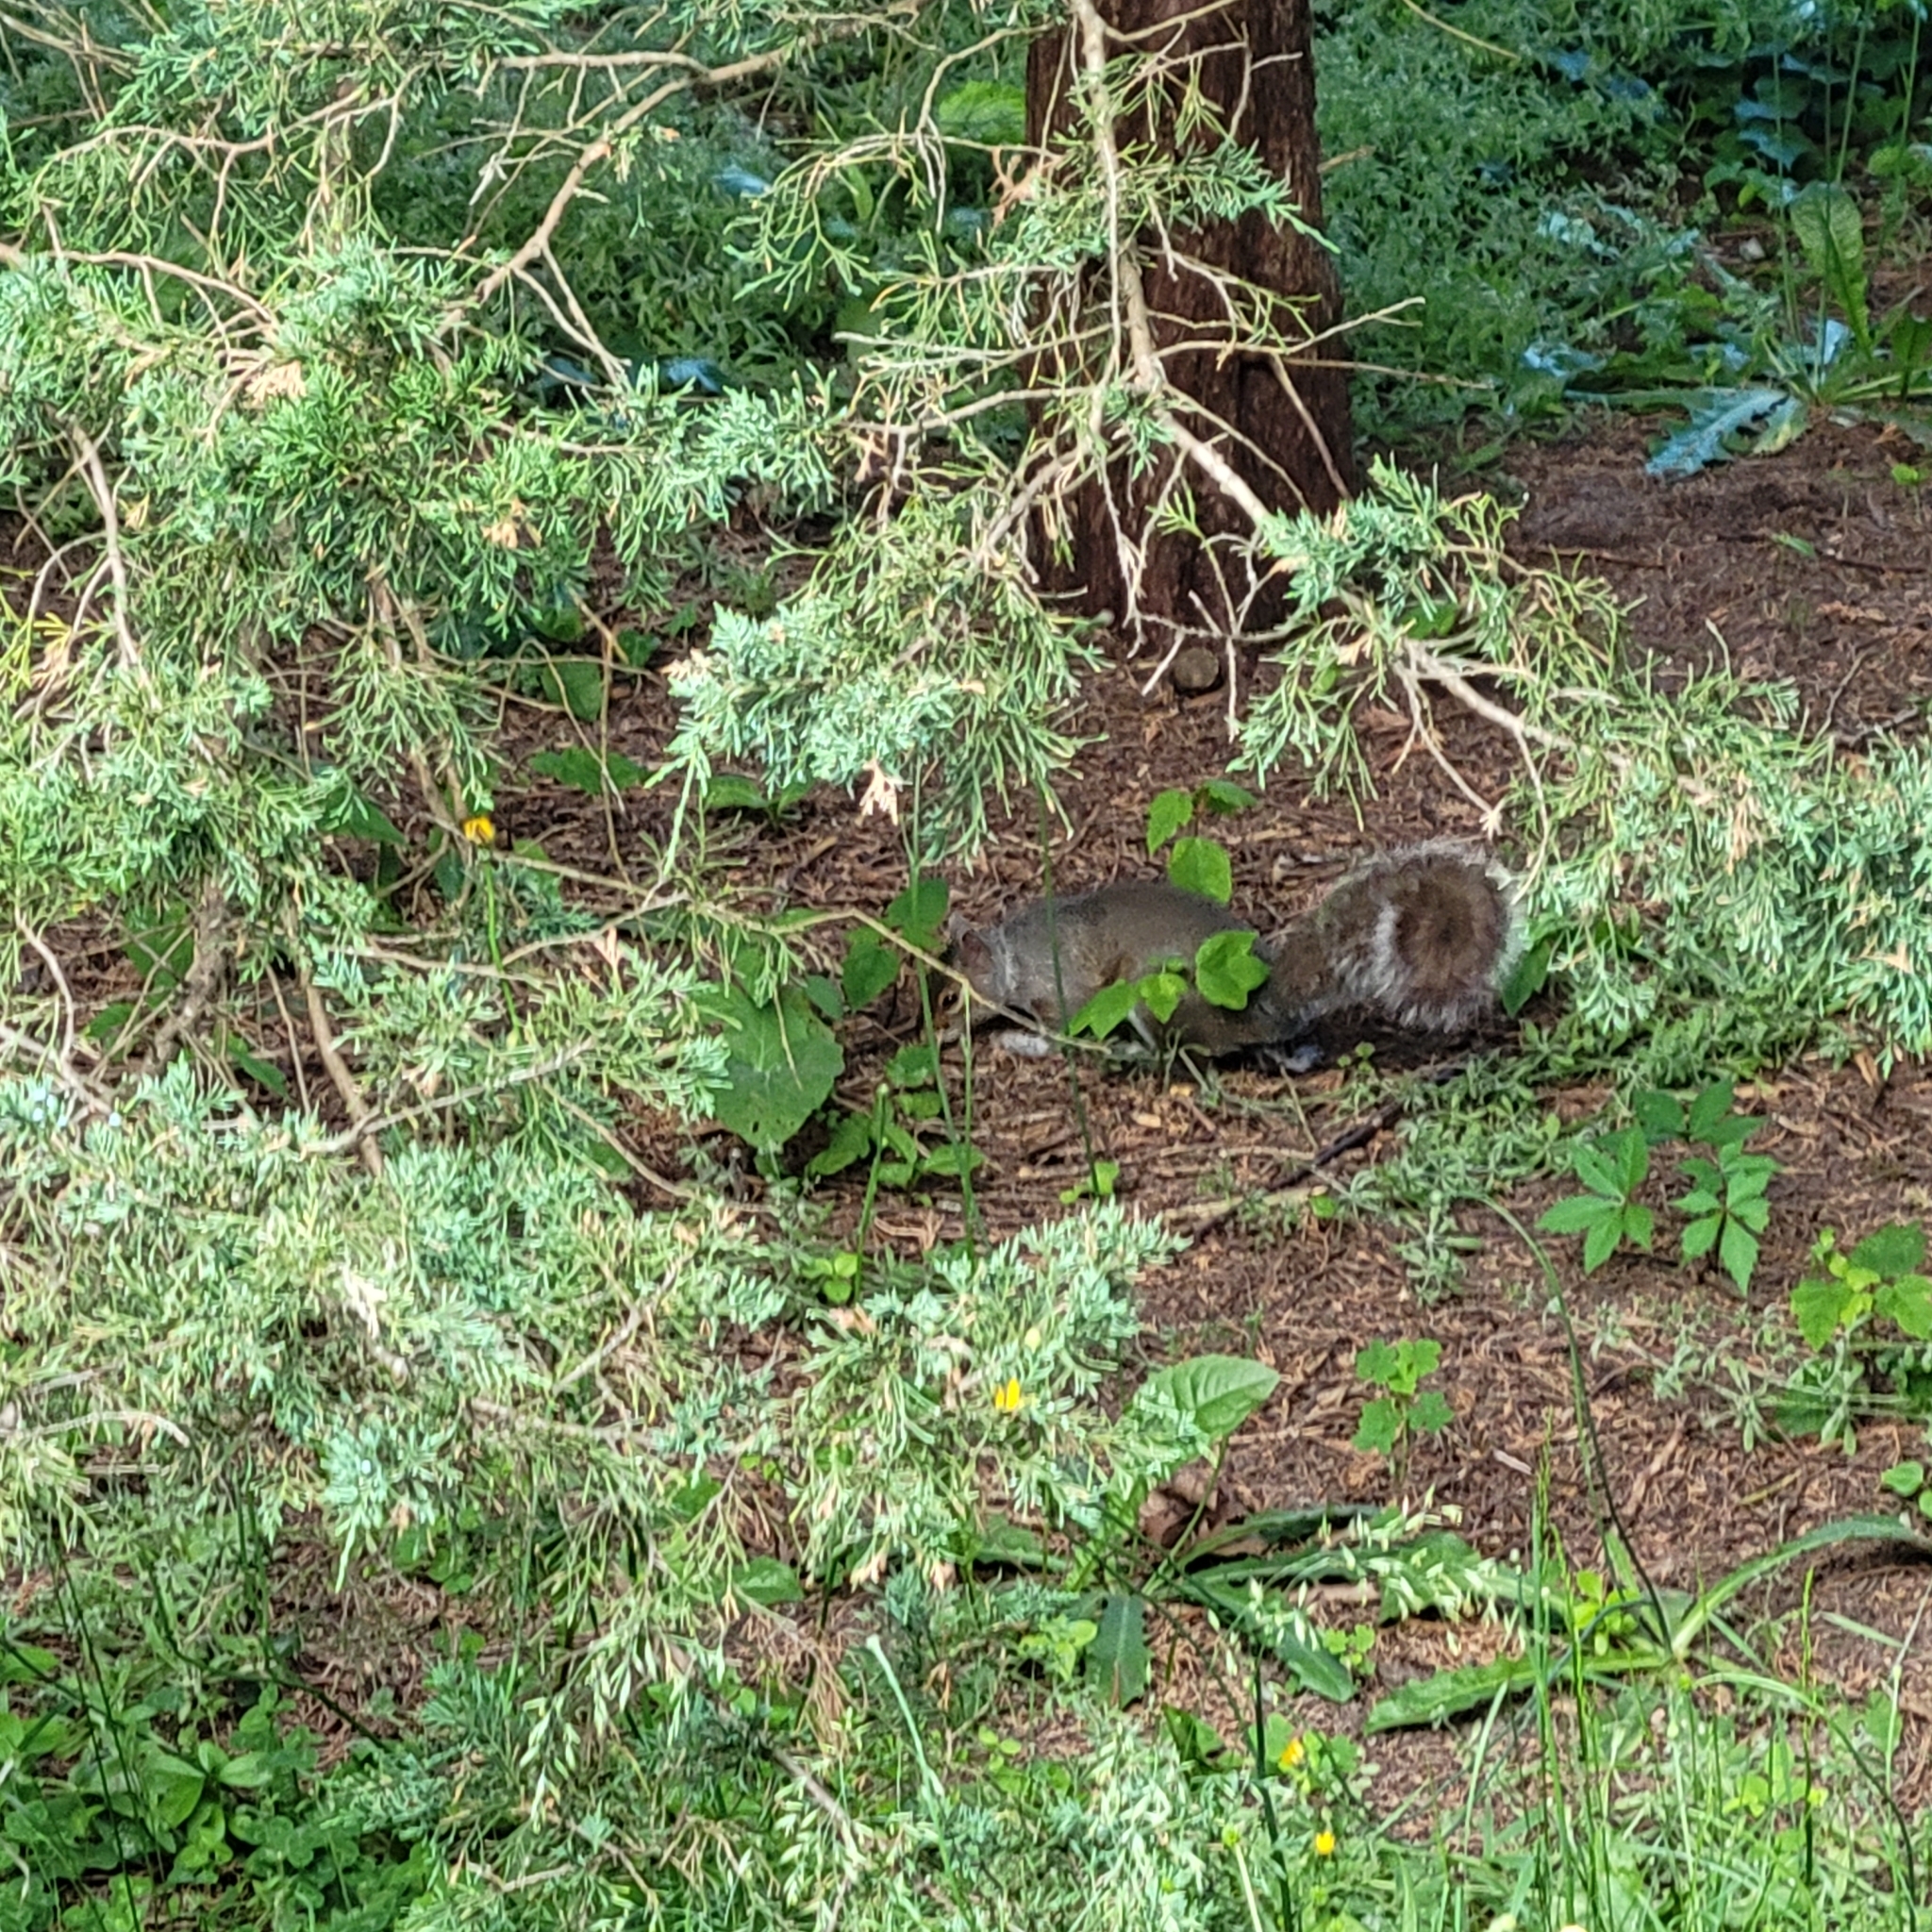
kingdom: Animalia
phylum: Chordata
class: Mammalia
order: Rodentia
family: Sciuridae
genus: Sciurus
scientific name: Sciurus carolinensis
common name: Eastern gray squirrel
